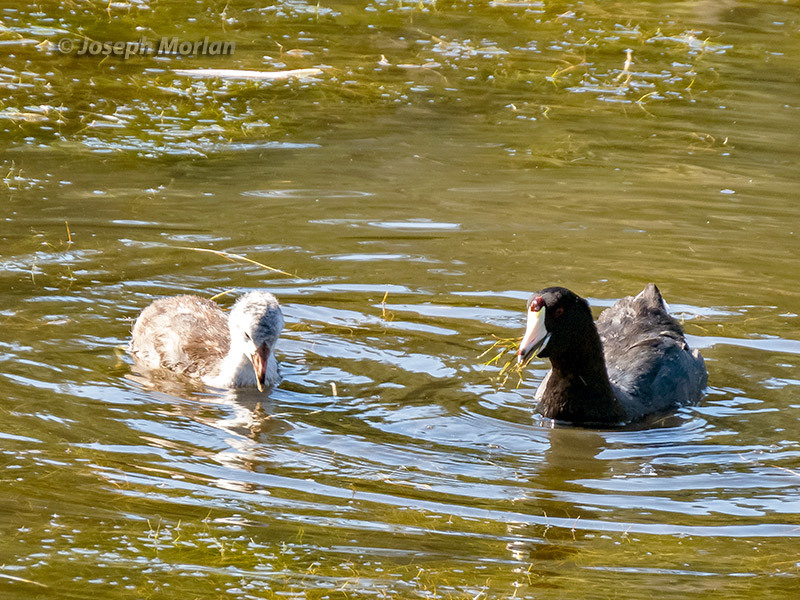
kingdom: Animalia
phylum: Chordata
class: Aves
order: Gruiformes
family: Rallidae
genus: Fulica
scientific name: Fulica americana
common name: American coot
